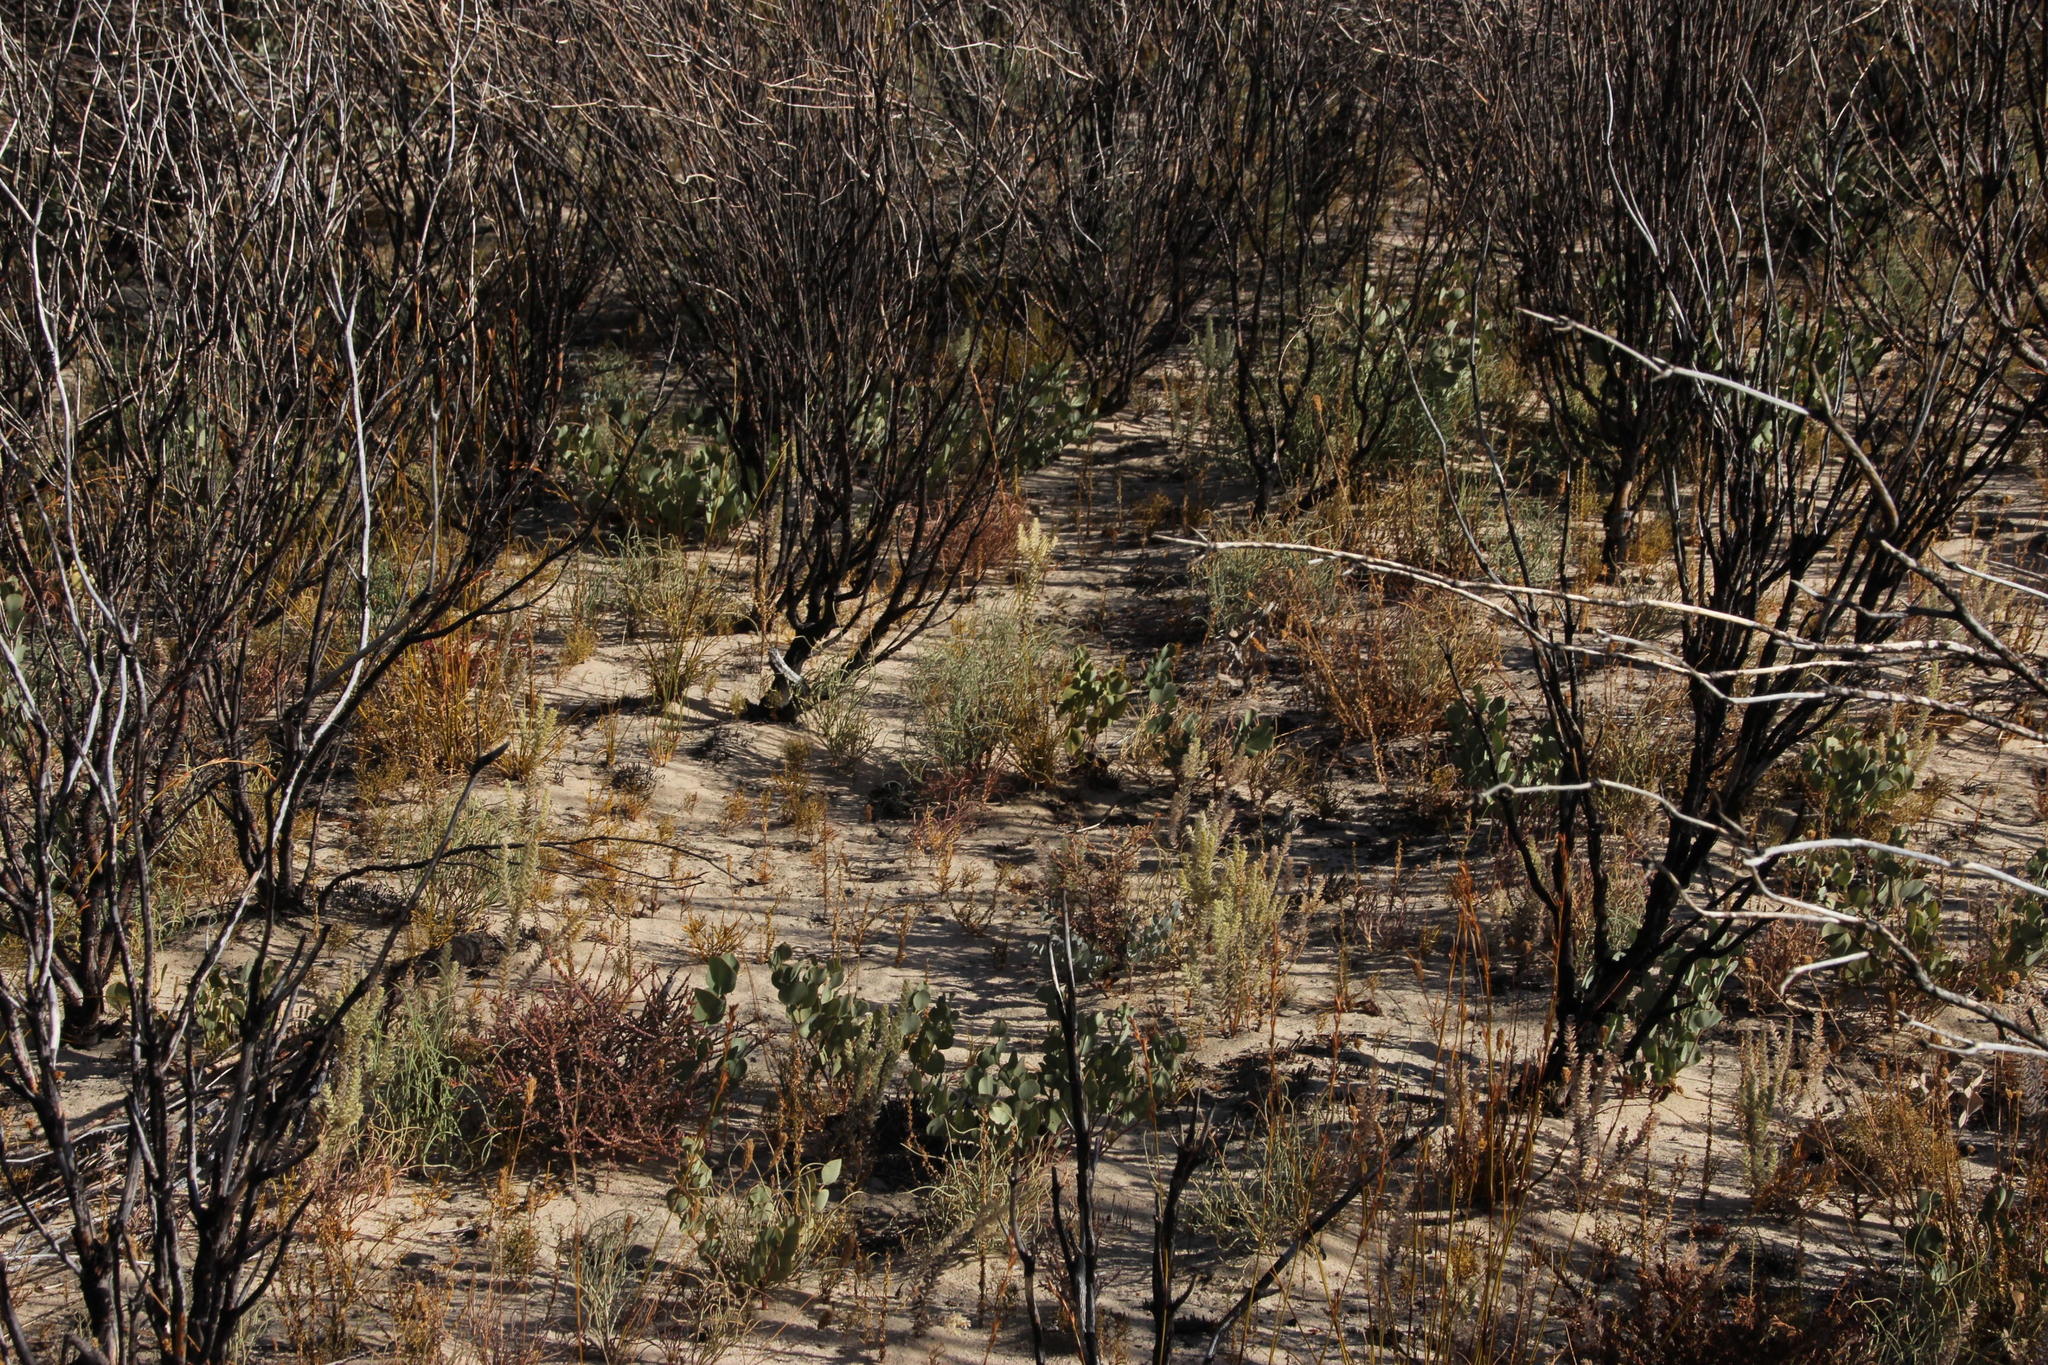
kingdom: Plantae
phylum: Tracheophyta
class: Magnoliopsida
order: Proteales
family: Proteaceae
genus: Leucadendron
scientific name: Leucadendron dubium
